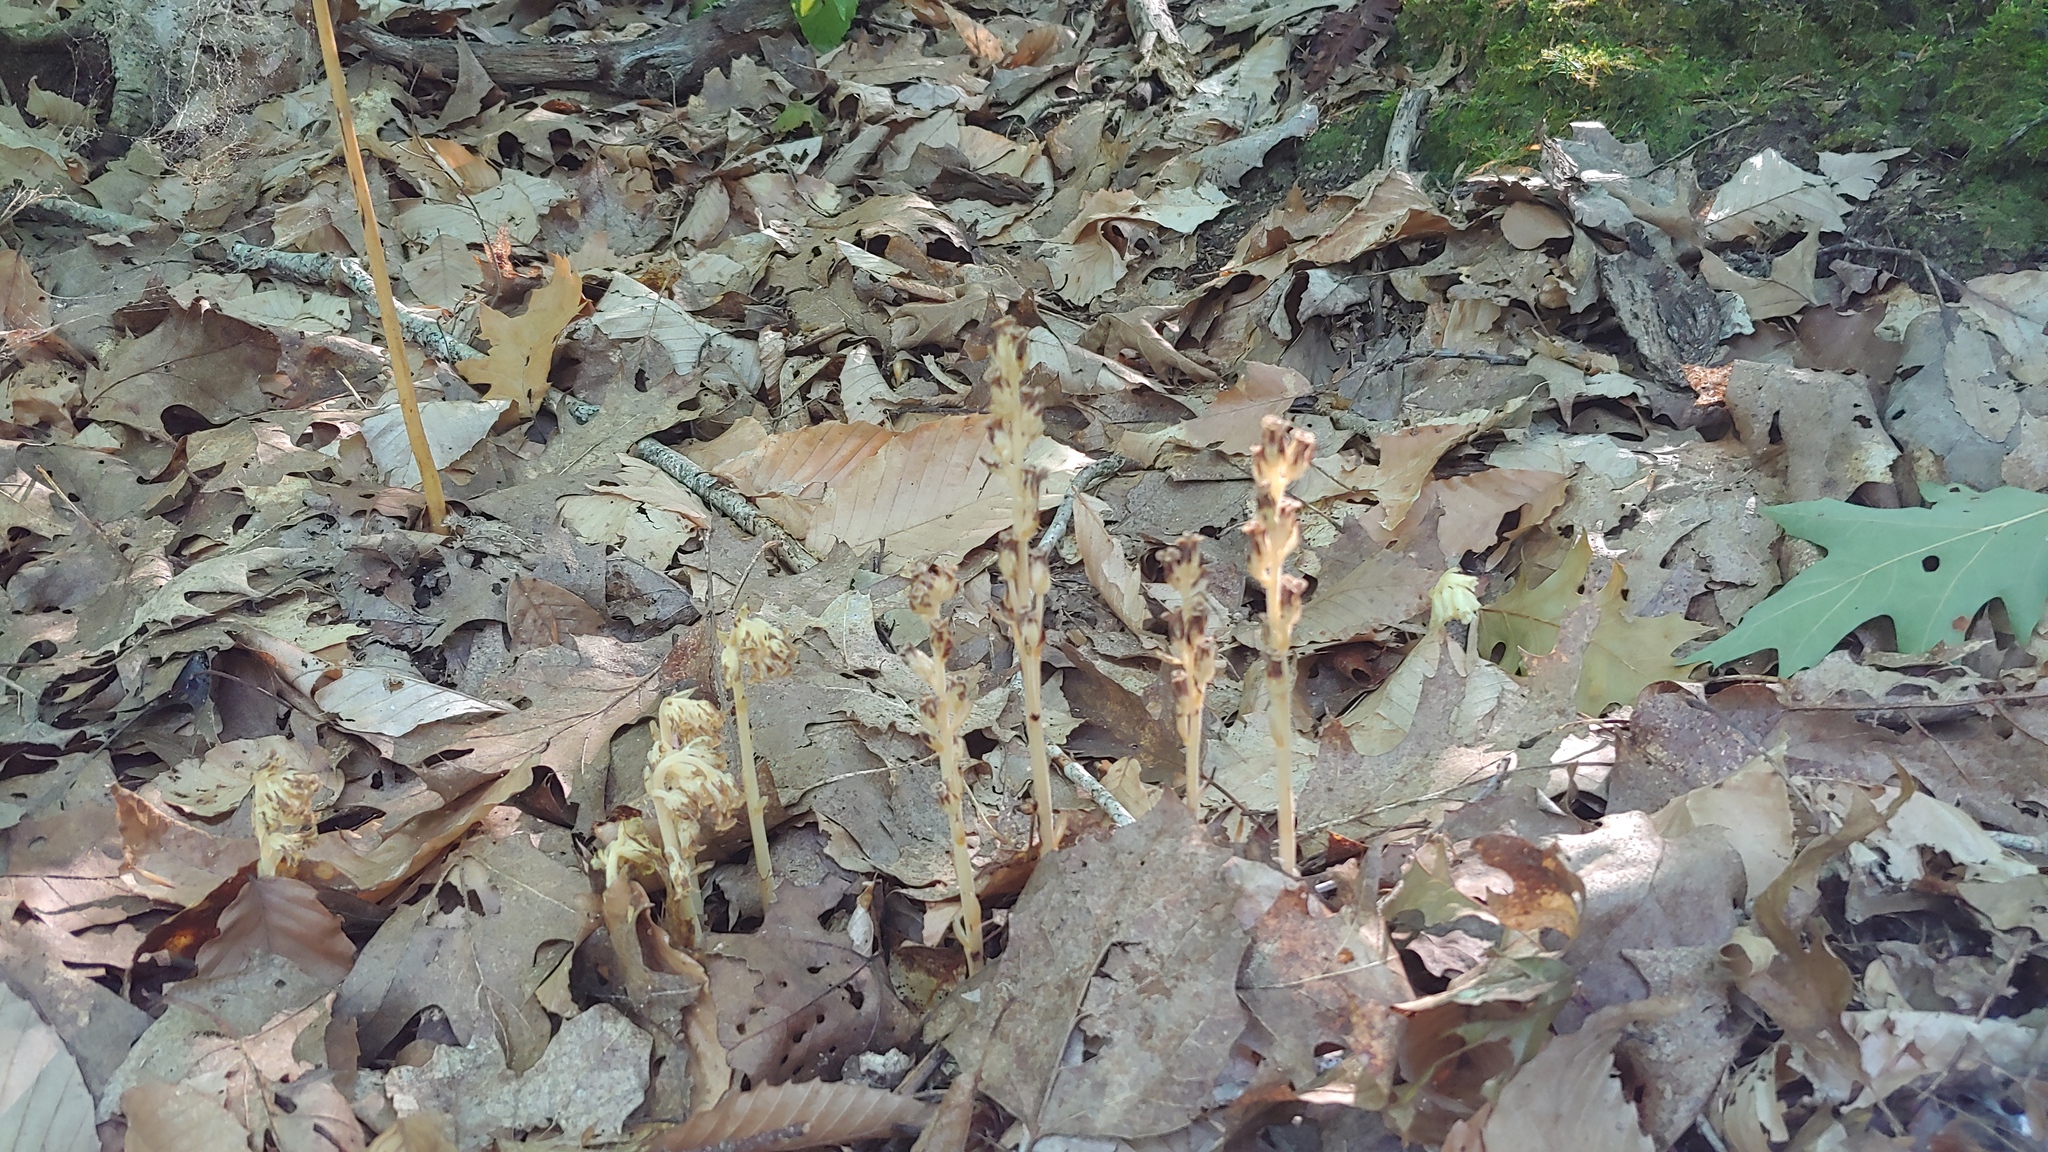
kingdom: Plantae
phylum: Tracheophyta
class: Magnoliopsida
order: Ericales
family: Ericaceae
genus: Hypopitys
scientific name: Hypopitys monotropa
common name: Yellow bird's-nest
